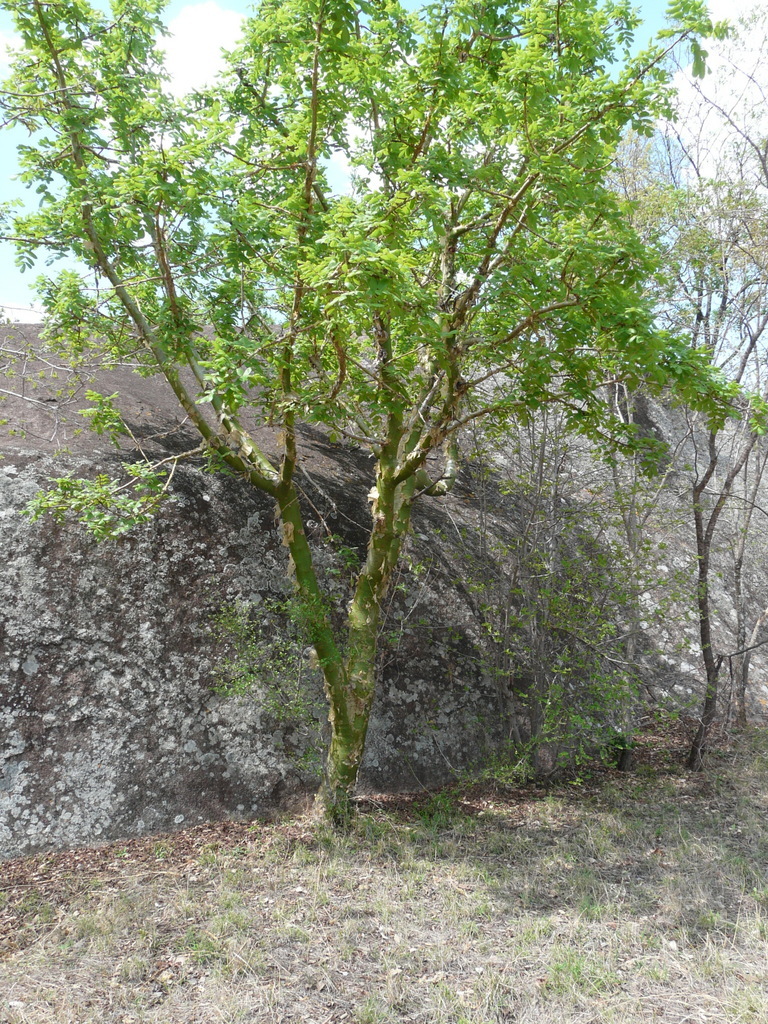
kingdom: Plantae
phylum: Tracheophyta
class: Magnoliopsida
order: Sapindales
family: Burseraceae
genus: Commiphora
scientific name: Commiphora marlothii
